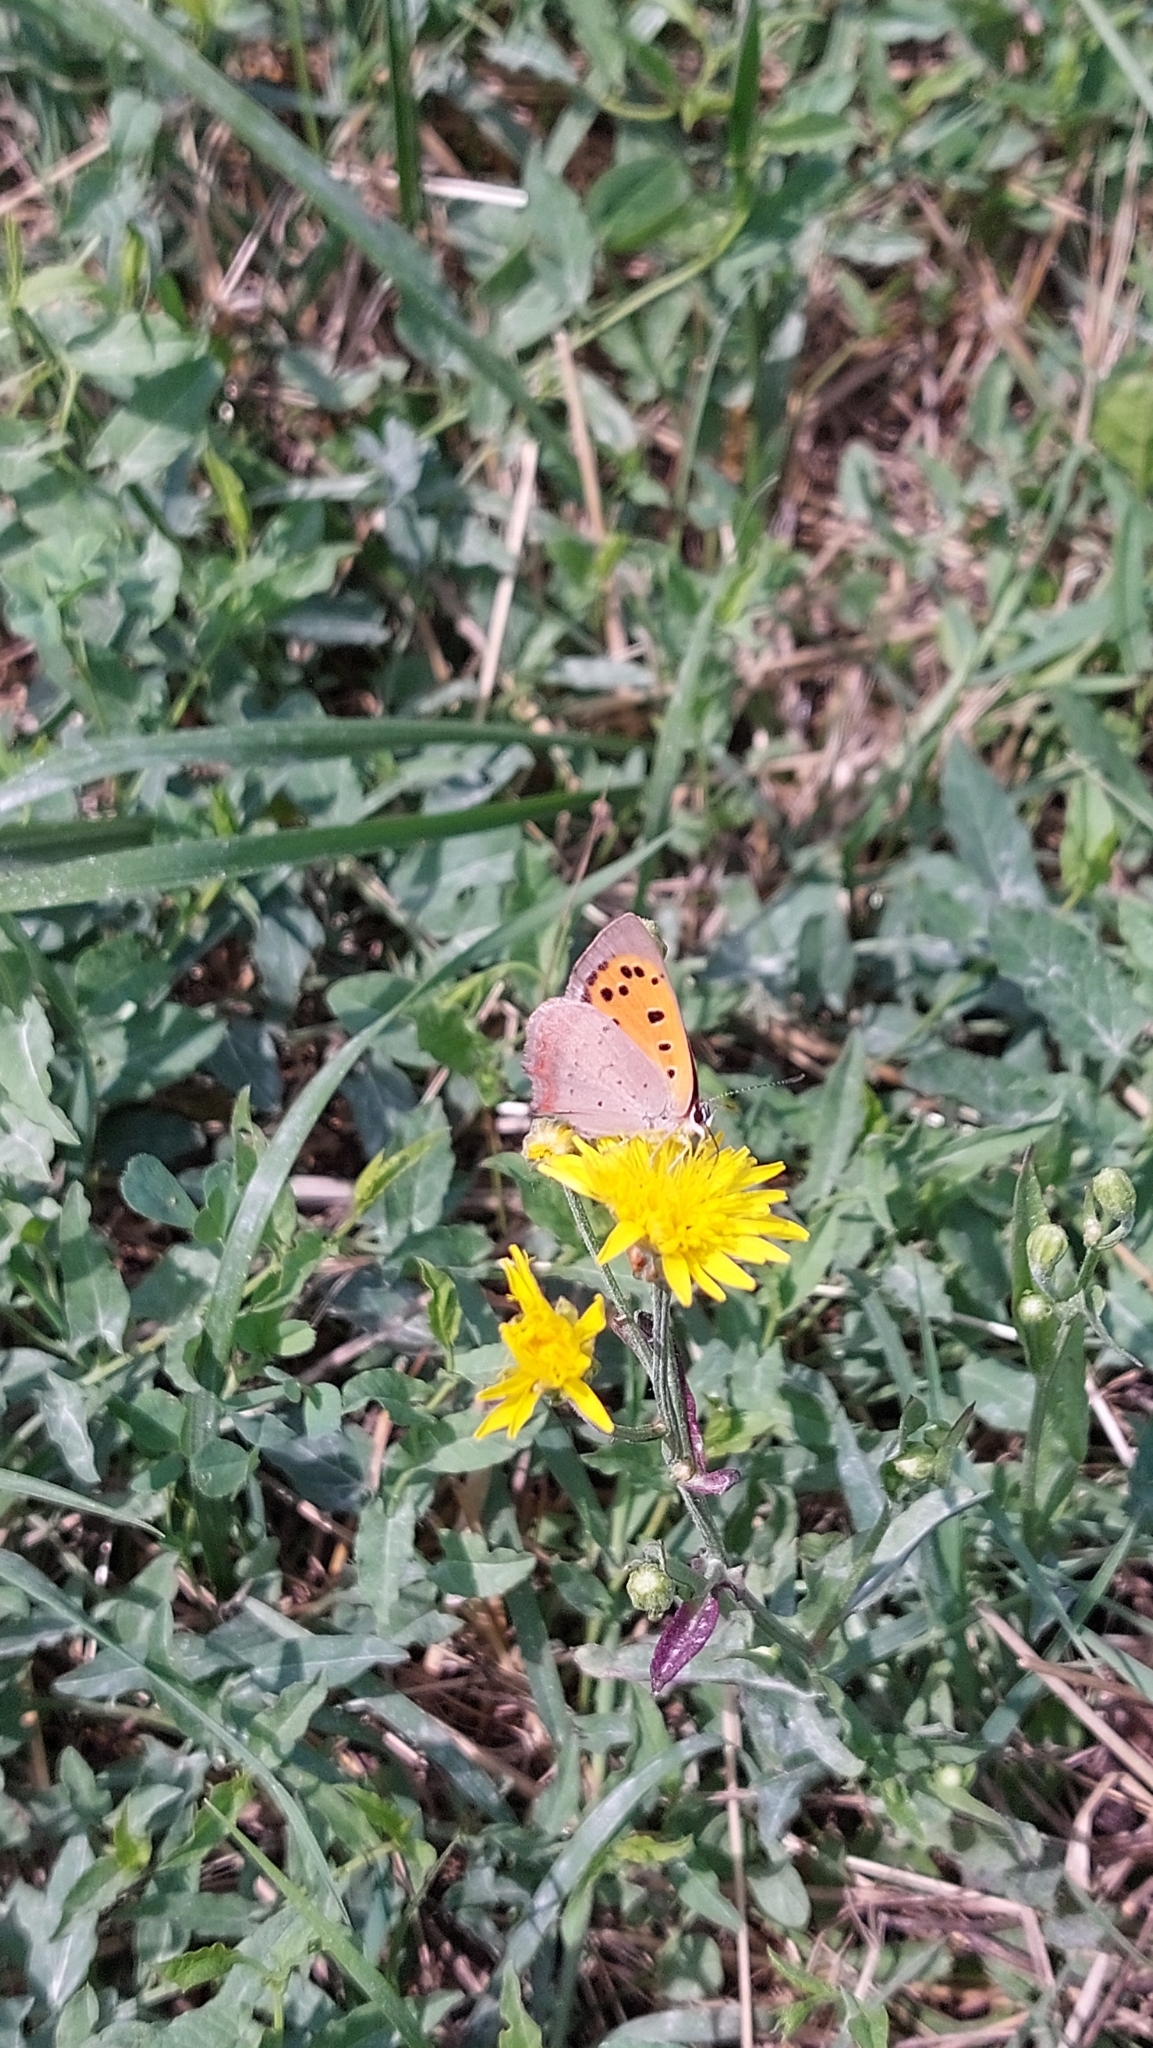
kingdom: Animalia
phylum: Arthropoda
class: Insecta
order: Lepidoptera
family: Lycaenidae
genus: Lycaena
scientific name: Lycaena phlaeas
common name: Small copper
